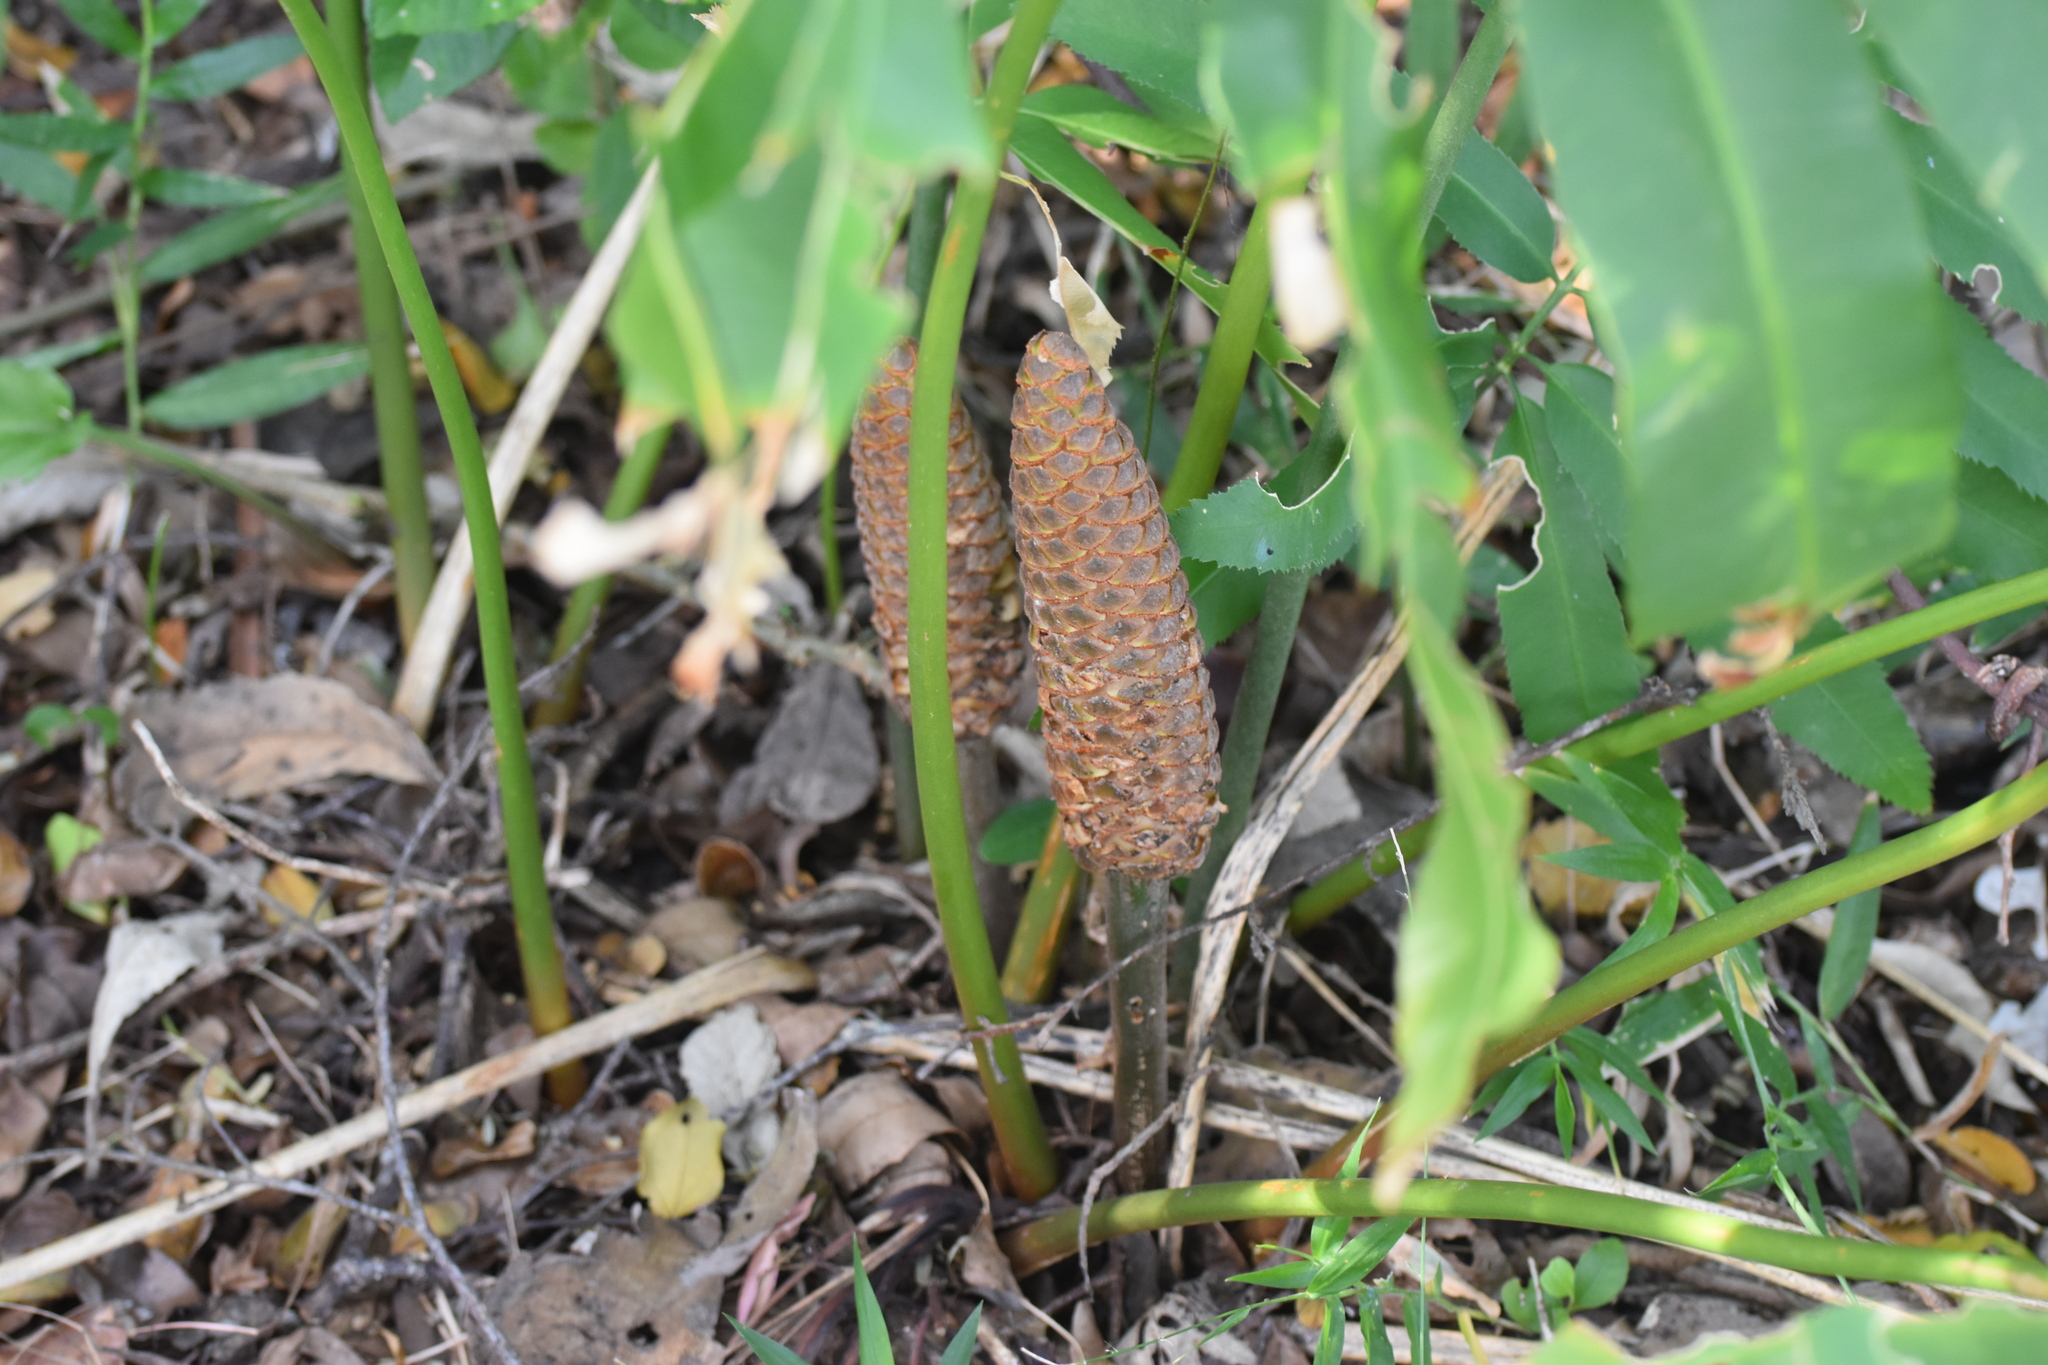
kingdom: Plantae
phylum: Tracheophyta
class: Cycadopsida
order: Cycadales
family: Zamiaceae
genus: Stangeria
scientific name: Stangeria eriopus
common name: Natal grass cycad
